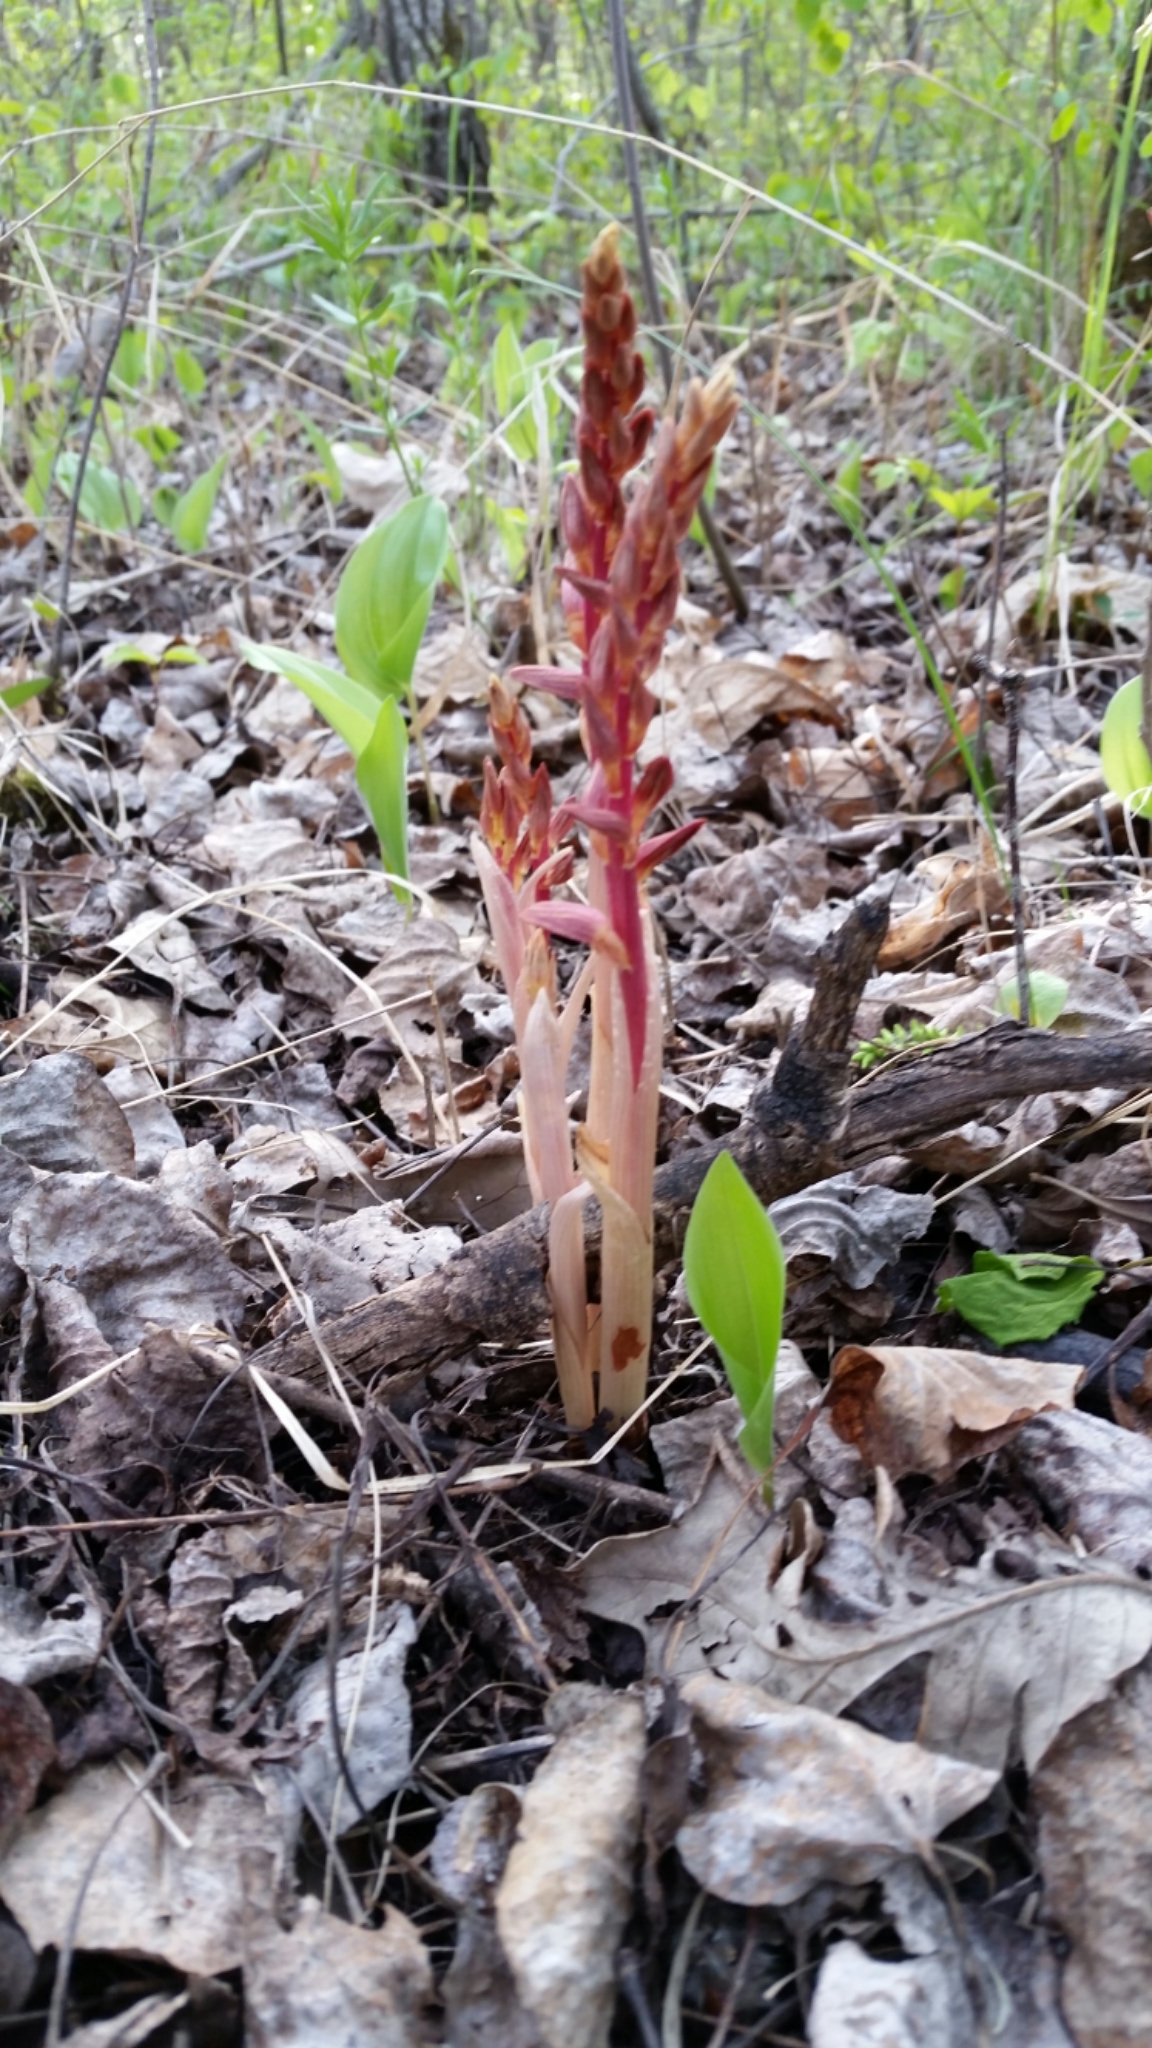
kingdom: Plantae
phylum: Tracheophyta
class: Liliopsida
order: Asparagales
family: Orchidaceae
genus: Corallorhiza
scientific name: Corallorhiza striata
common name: Hooded coralroot
